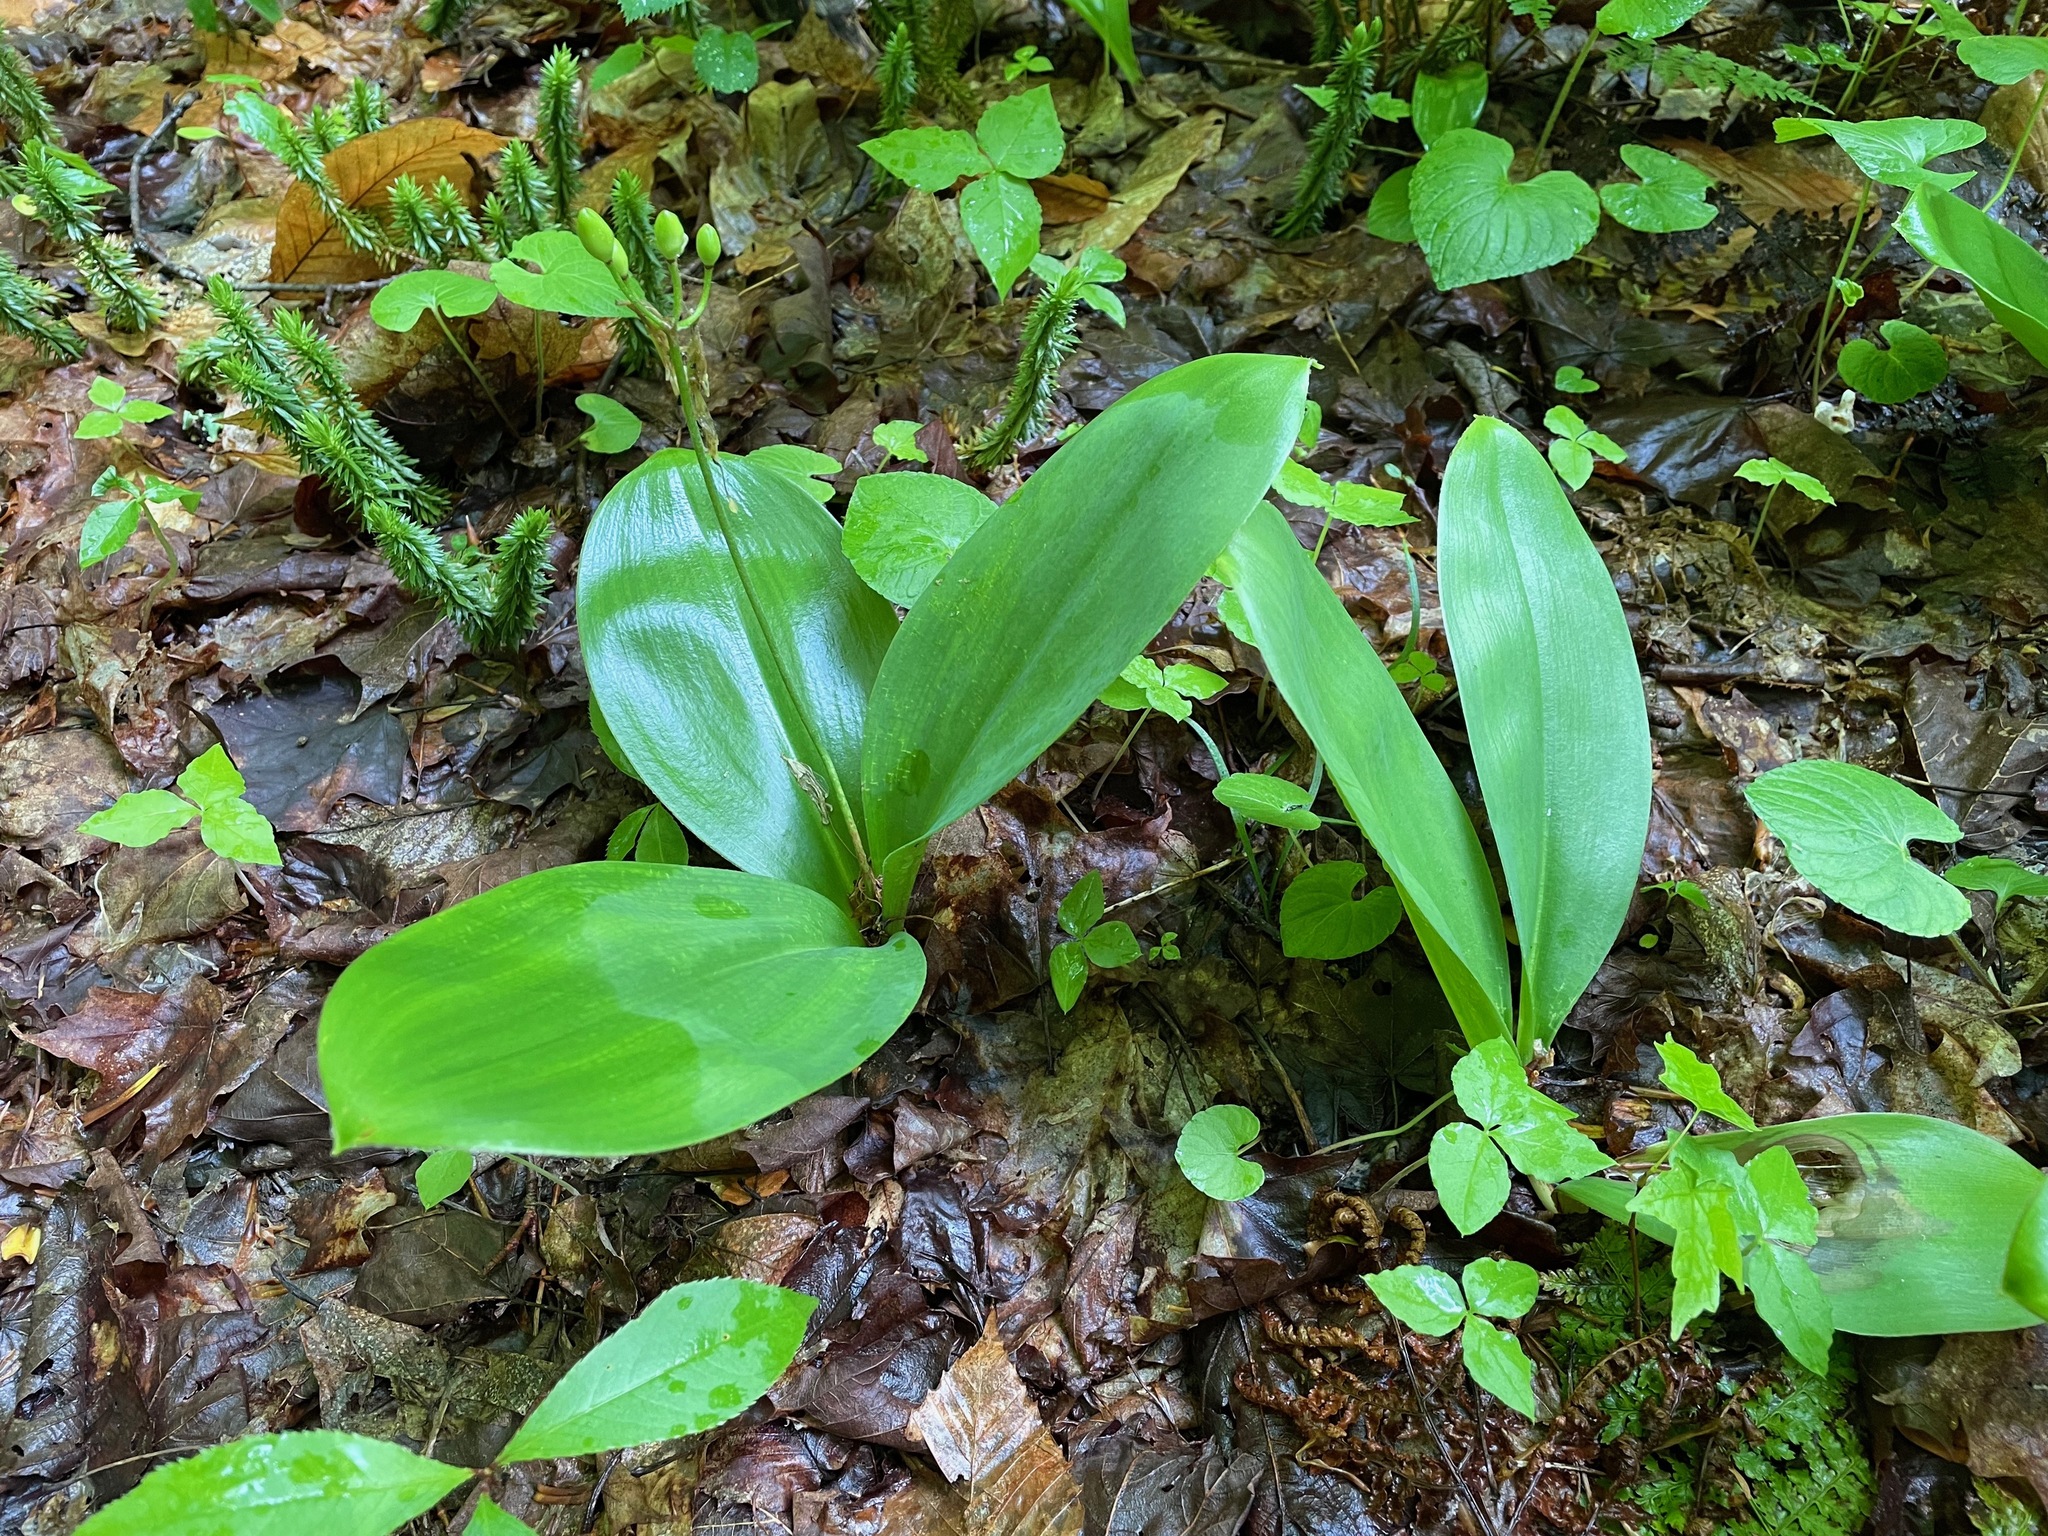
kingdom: Plantae
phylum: Tracheophyta
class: Liliopsida
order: Liliales
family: Liliaceae
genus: Clintonia
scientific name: Clintonia borealis
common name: Yellow clintonia
